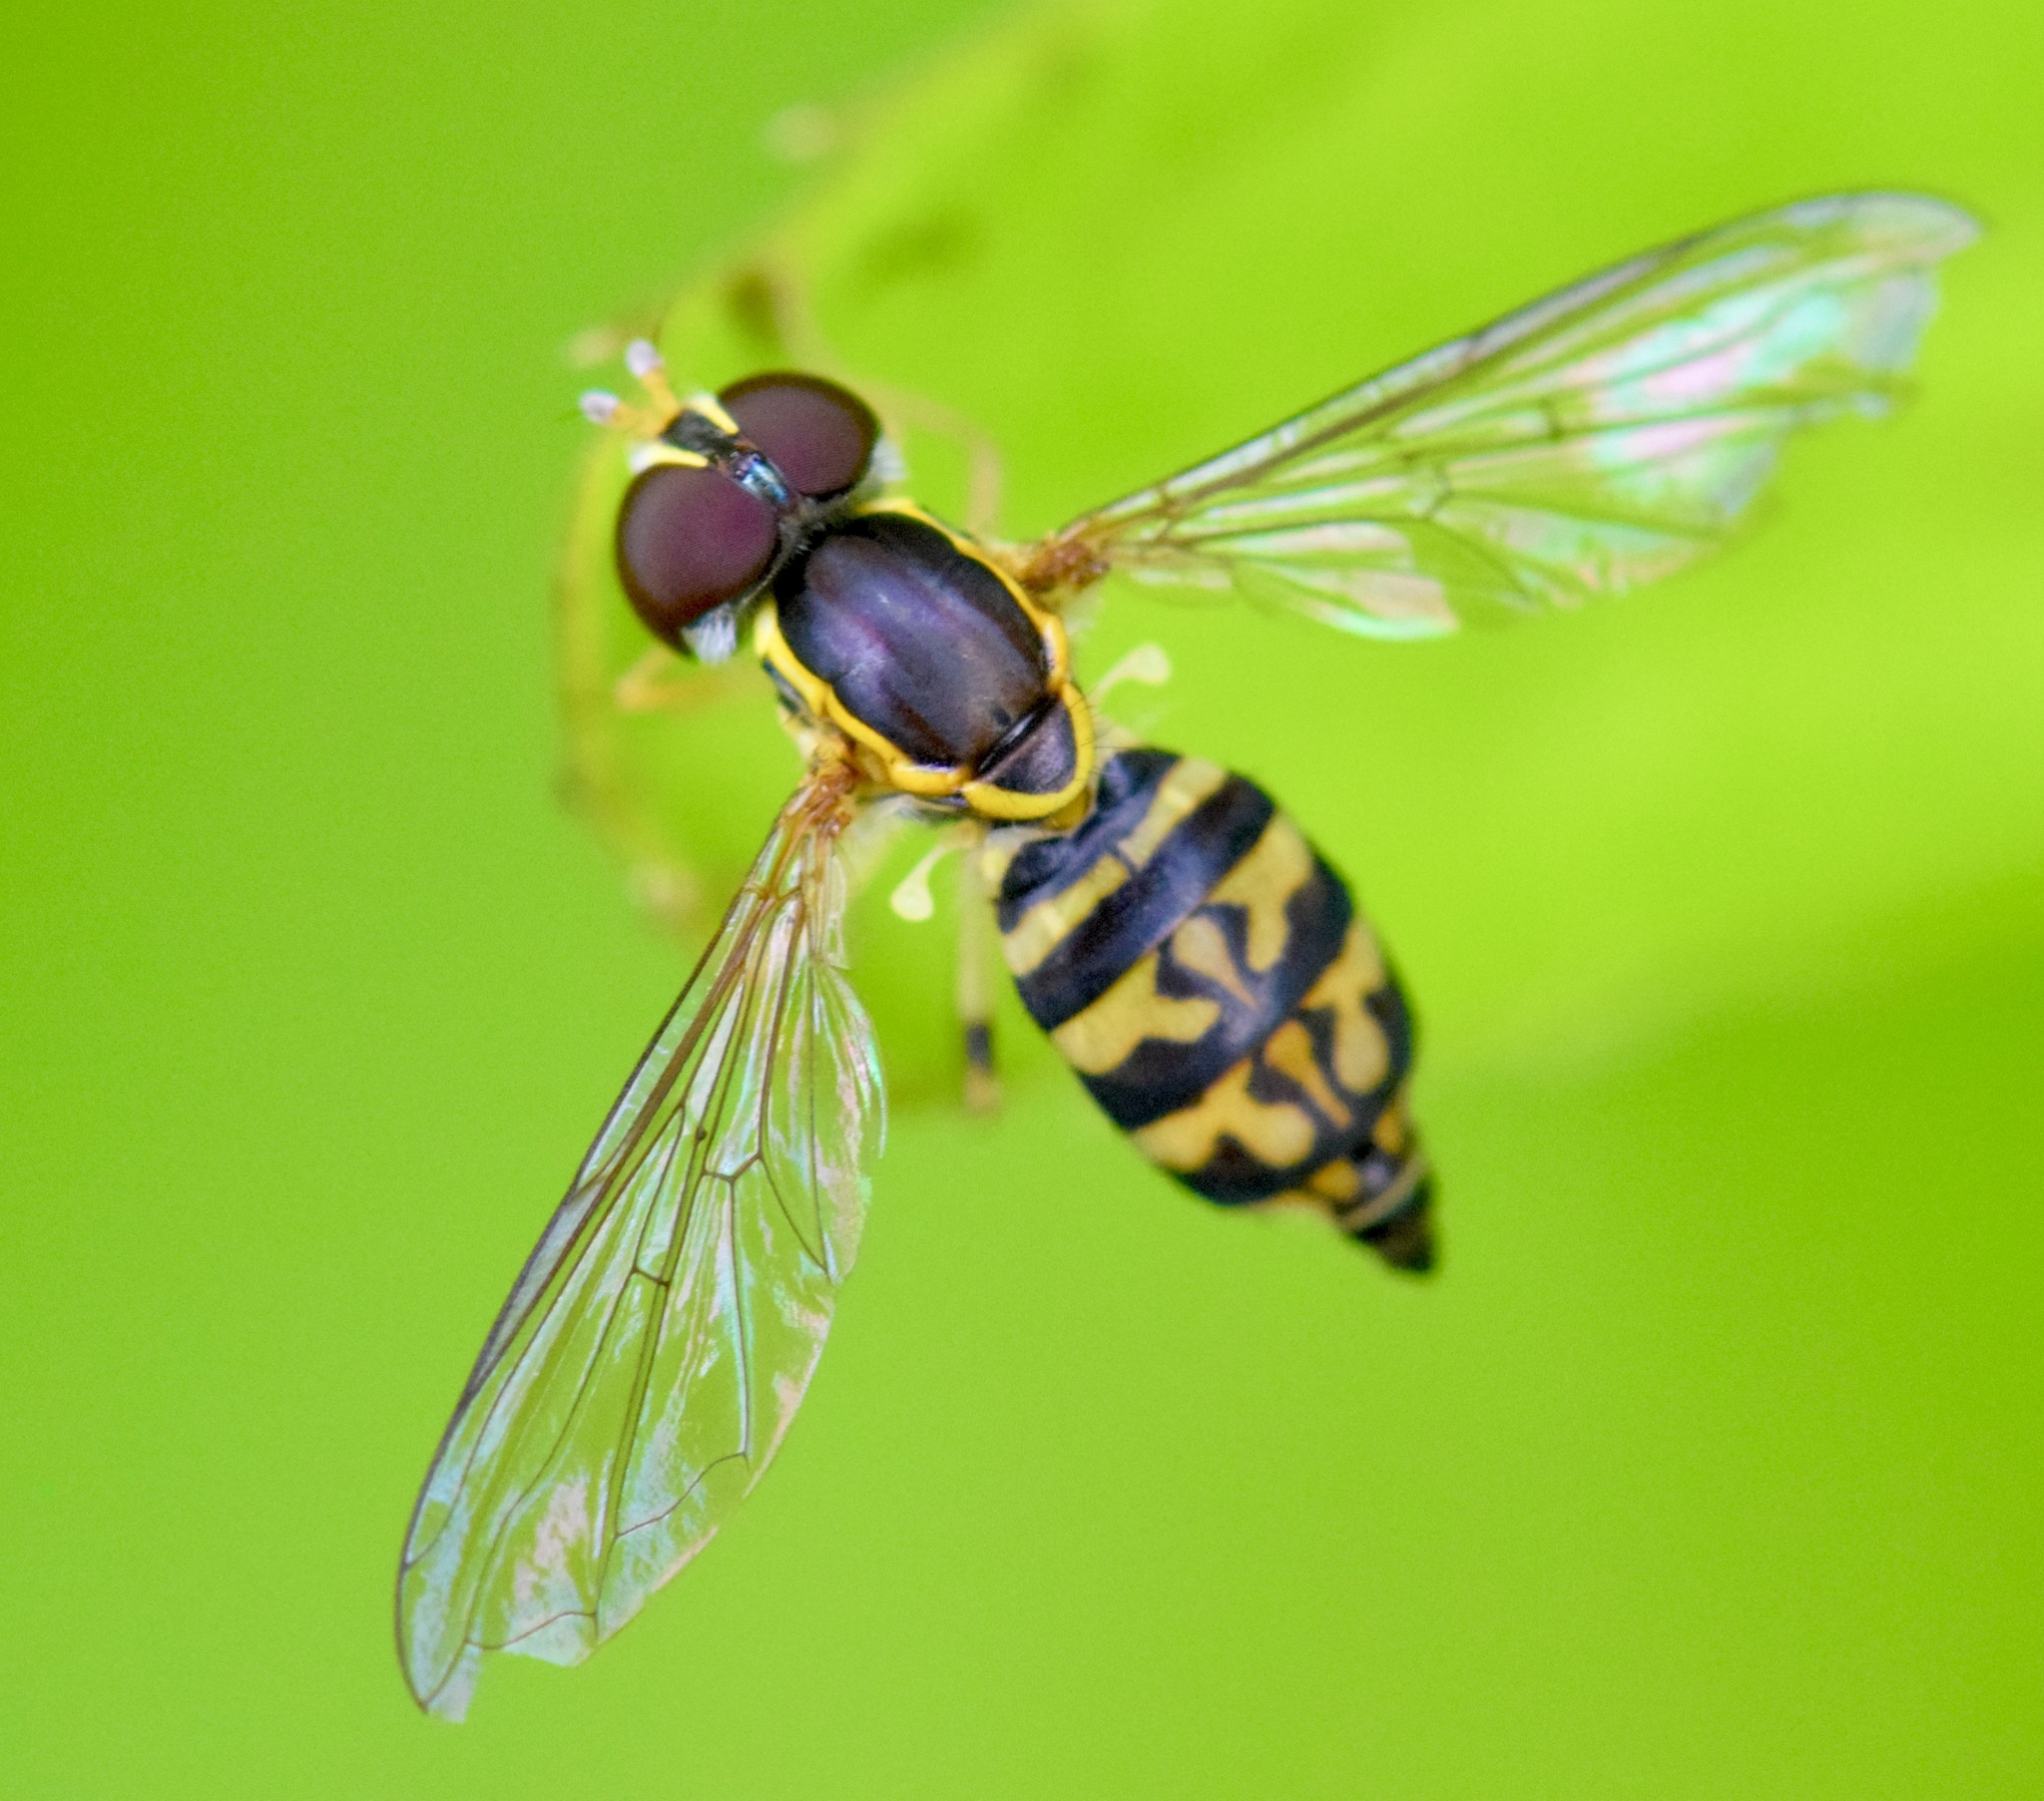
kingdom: Animalia
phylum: Arthropoda
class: Insecta
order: Diptera
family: Syrphidae
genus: Toxomerus
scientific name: Toxomerus geminatus
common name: Eastern calligrapher
